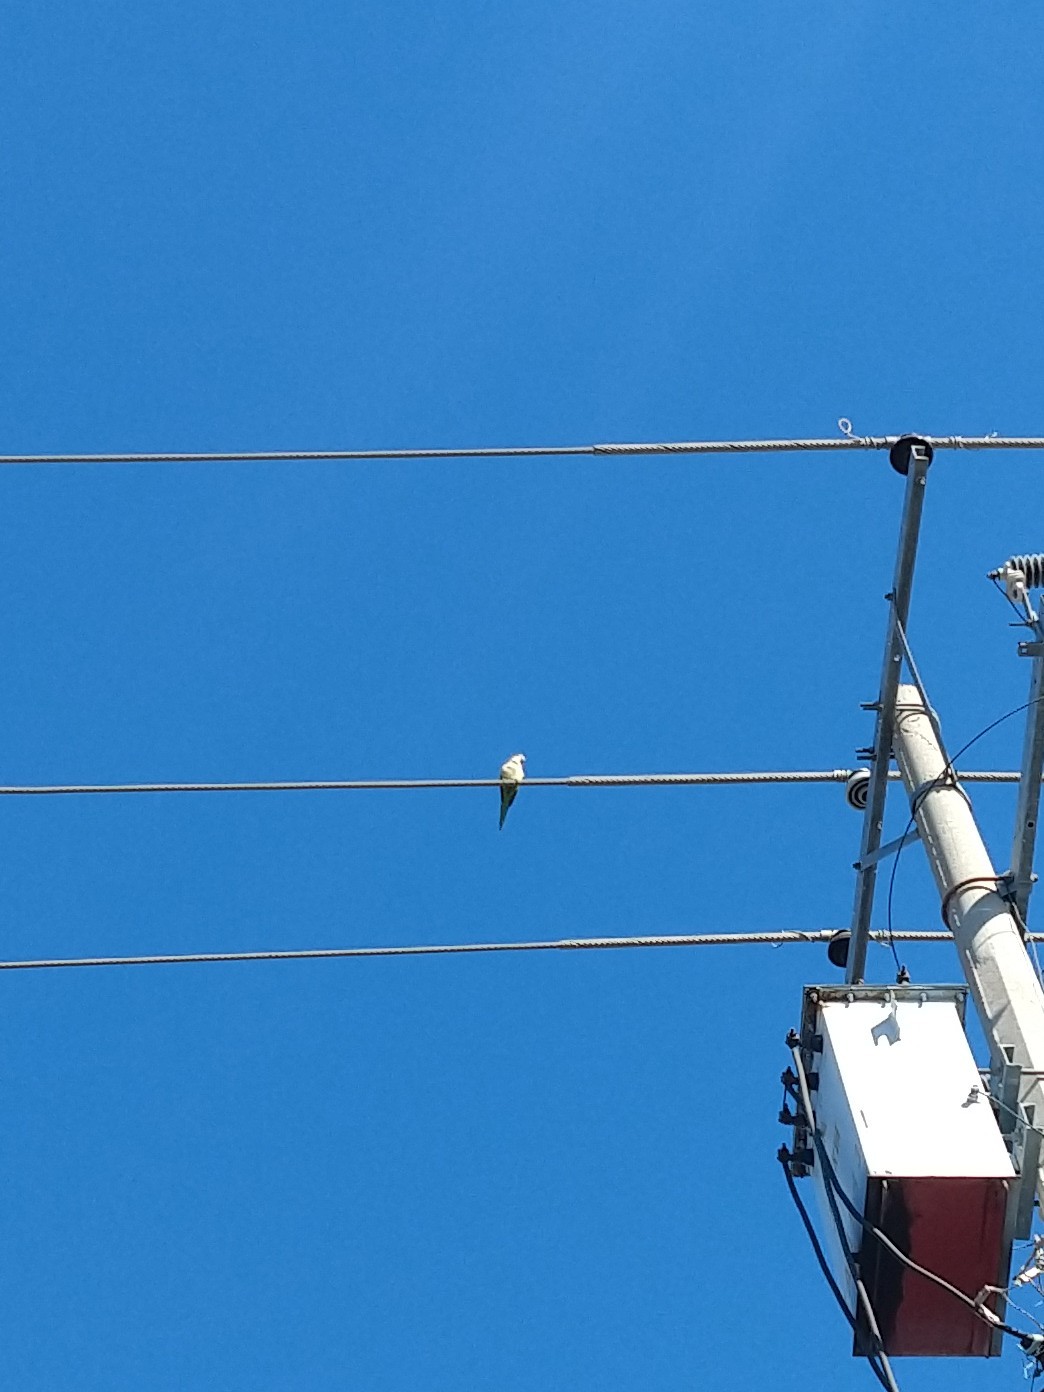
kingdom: Animalia
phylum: Chordata
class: Aves
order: Psittaciformes
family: Psittacidae
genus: Myiopsitta
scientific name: Myiopsitta monachus
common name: Monk parakeet
